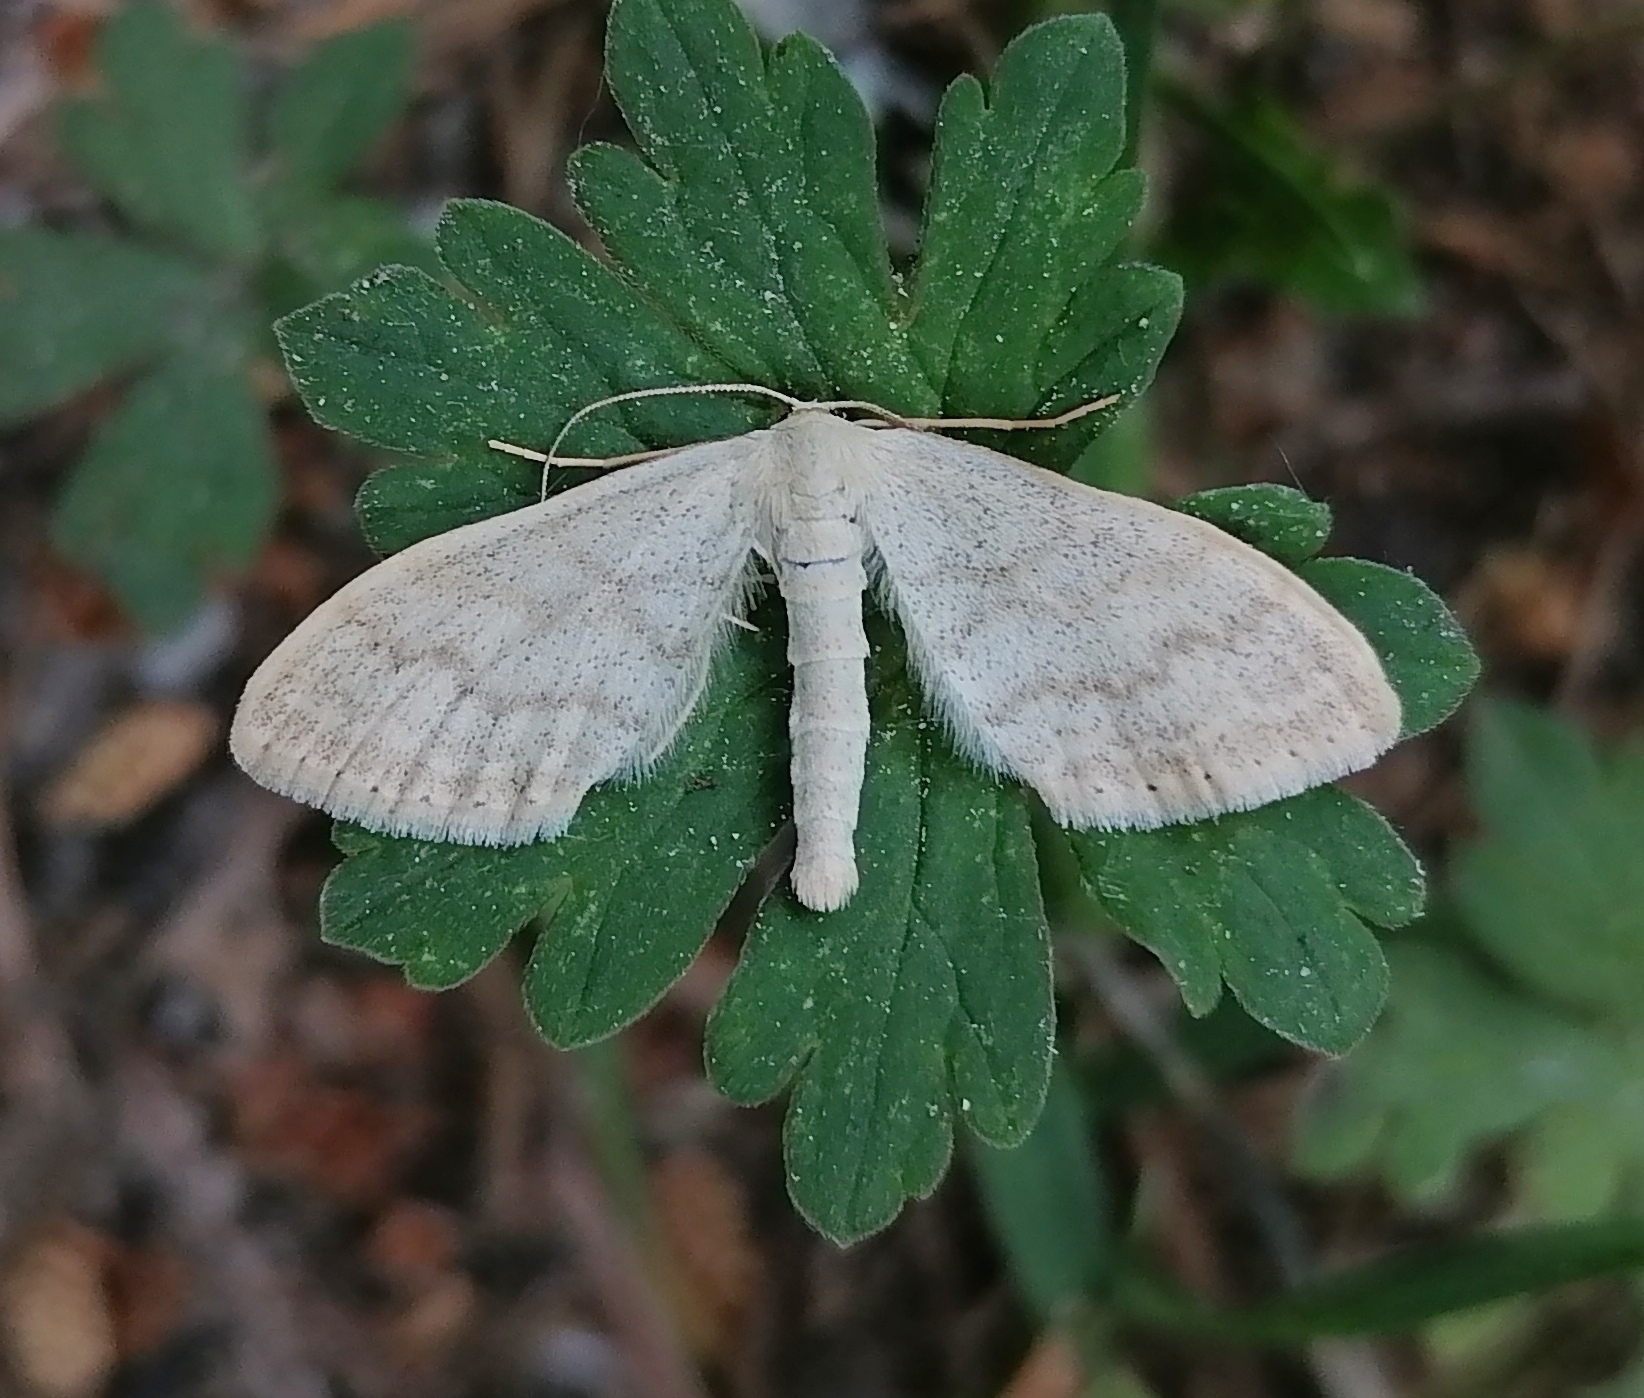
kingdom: Animalia
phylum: Arthropoda
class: Insecta
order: Lepidoptera
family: Geometridae
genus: Scopula
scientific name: Scopula floslactata
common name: Cream wave
